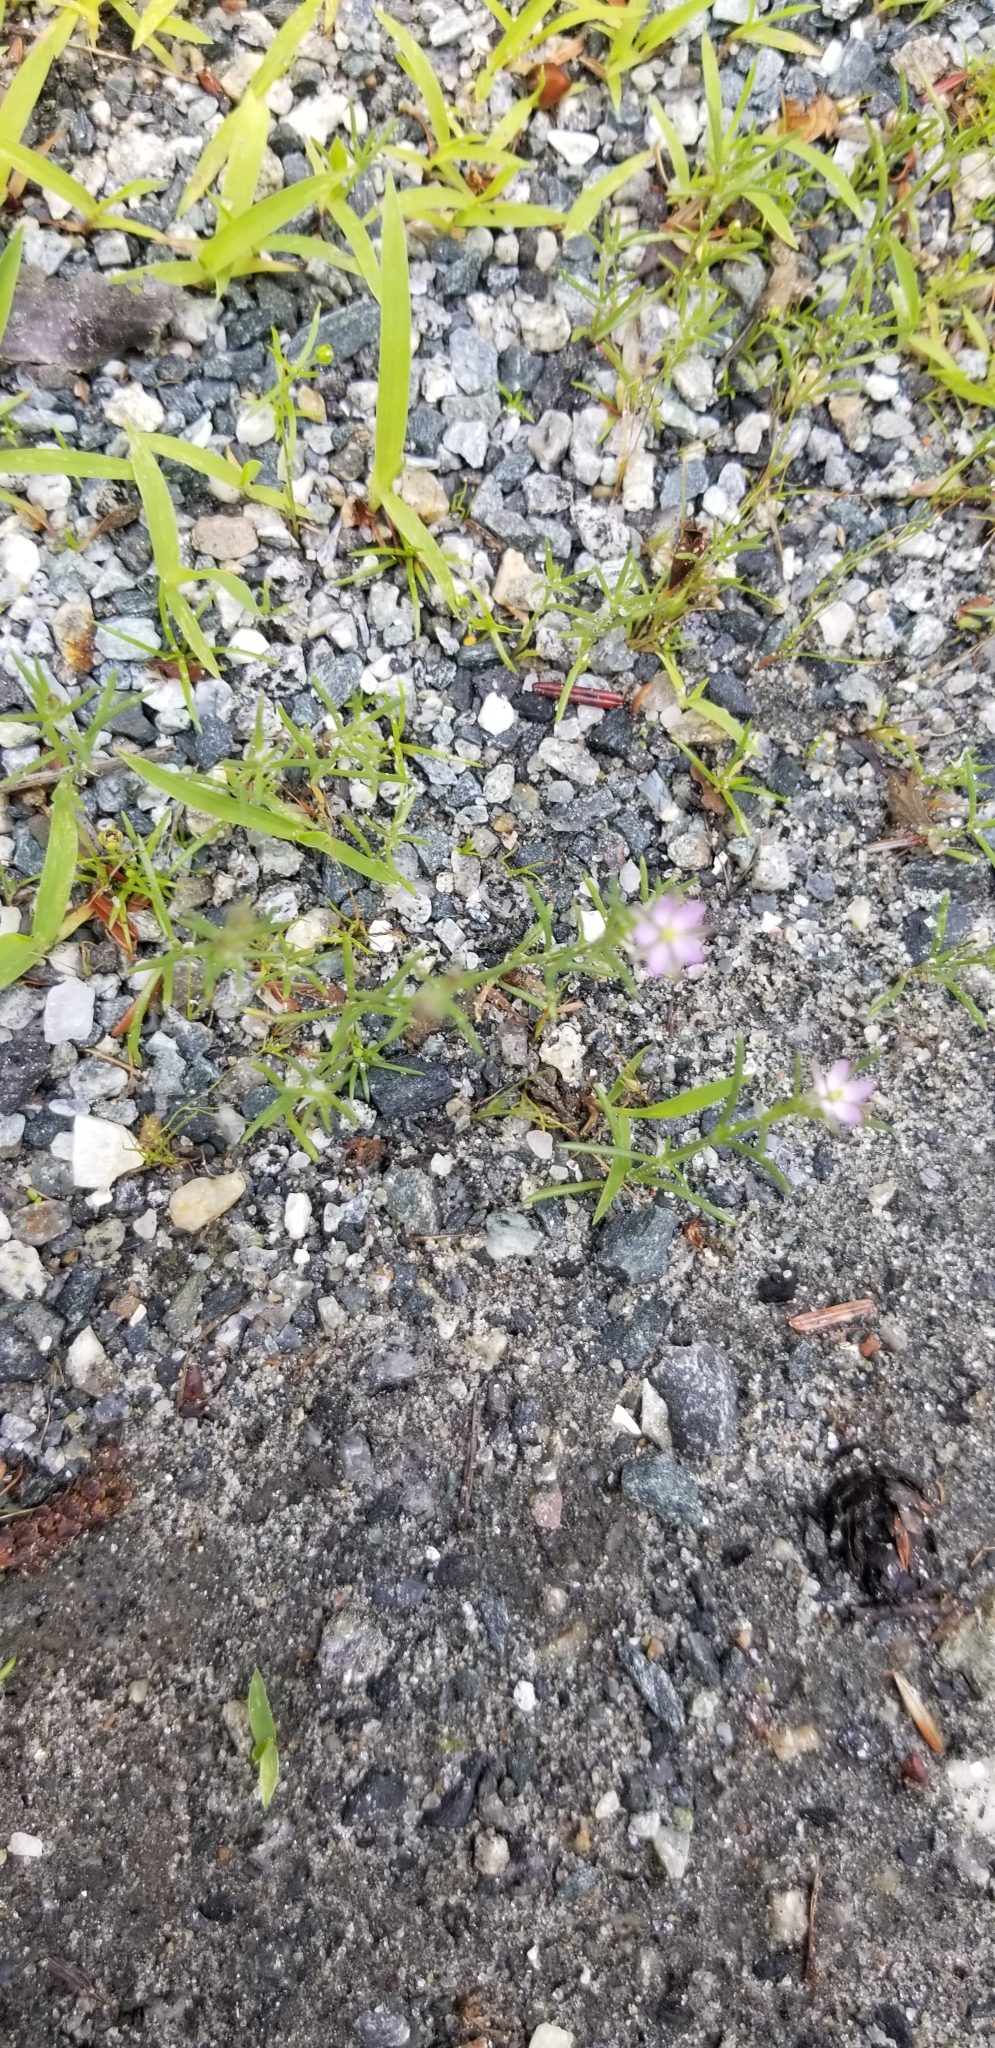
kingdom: Plantae
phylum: Tracheophyta
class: Magnoliopsida
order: Caryophyllales
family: Caryophyllaceae
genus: Spergularia
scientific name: Spergularia rubra
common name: Red sand-spurrey
